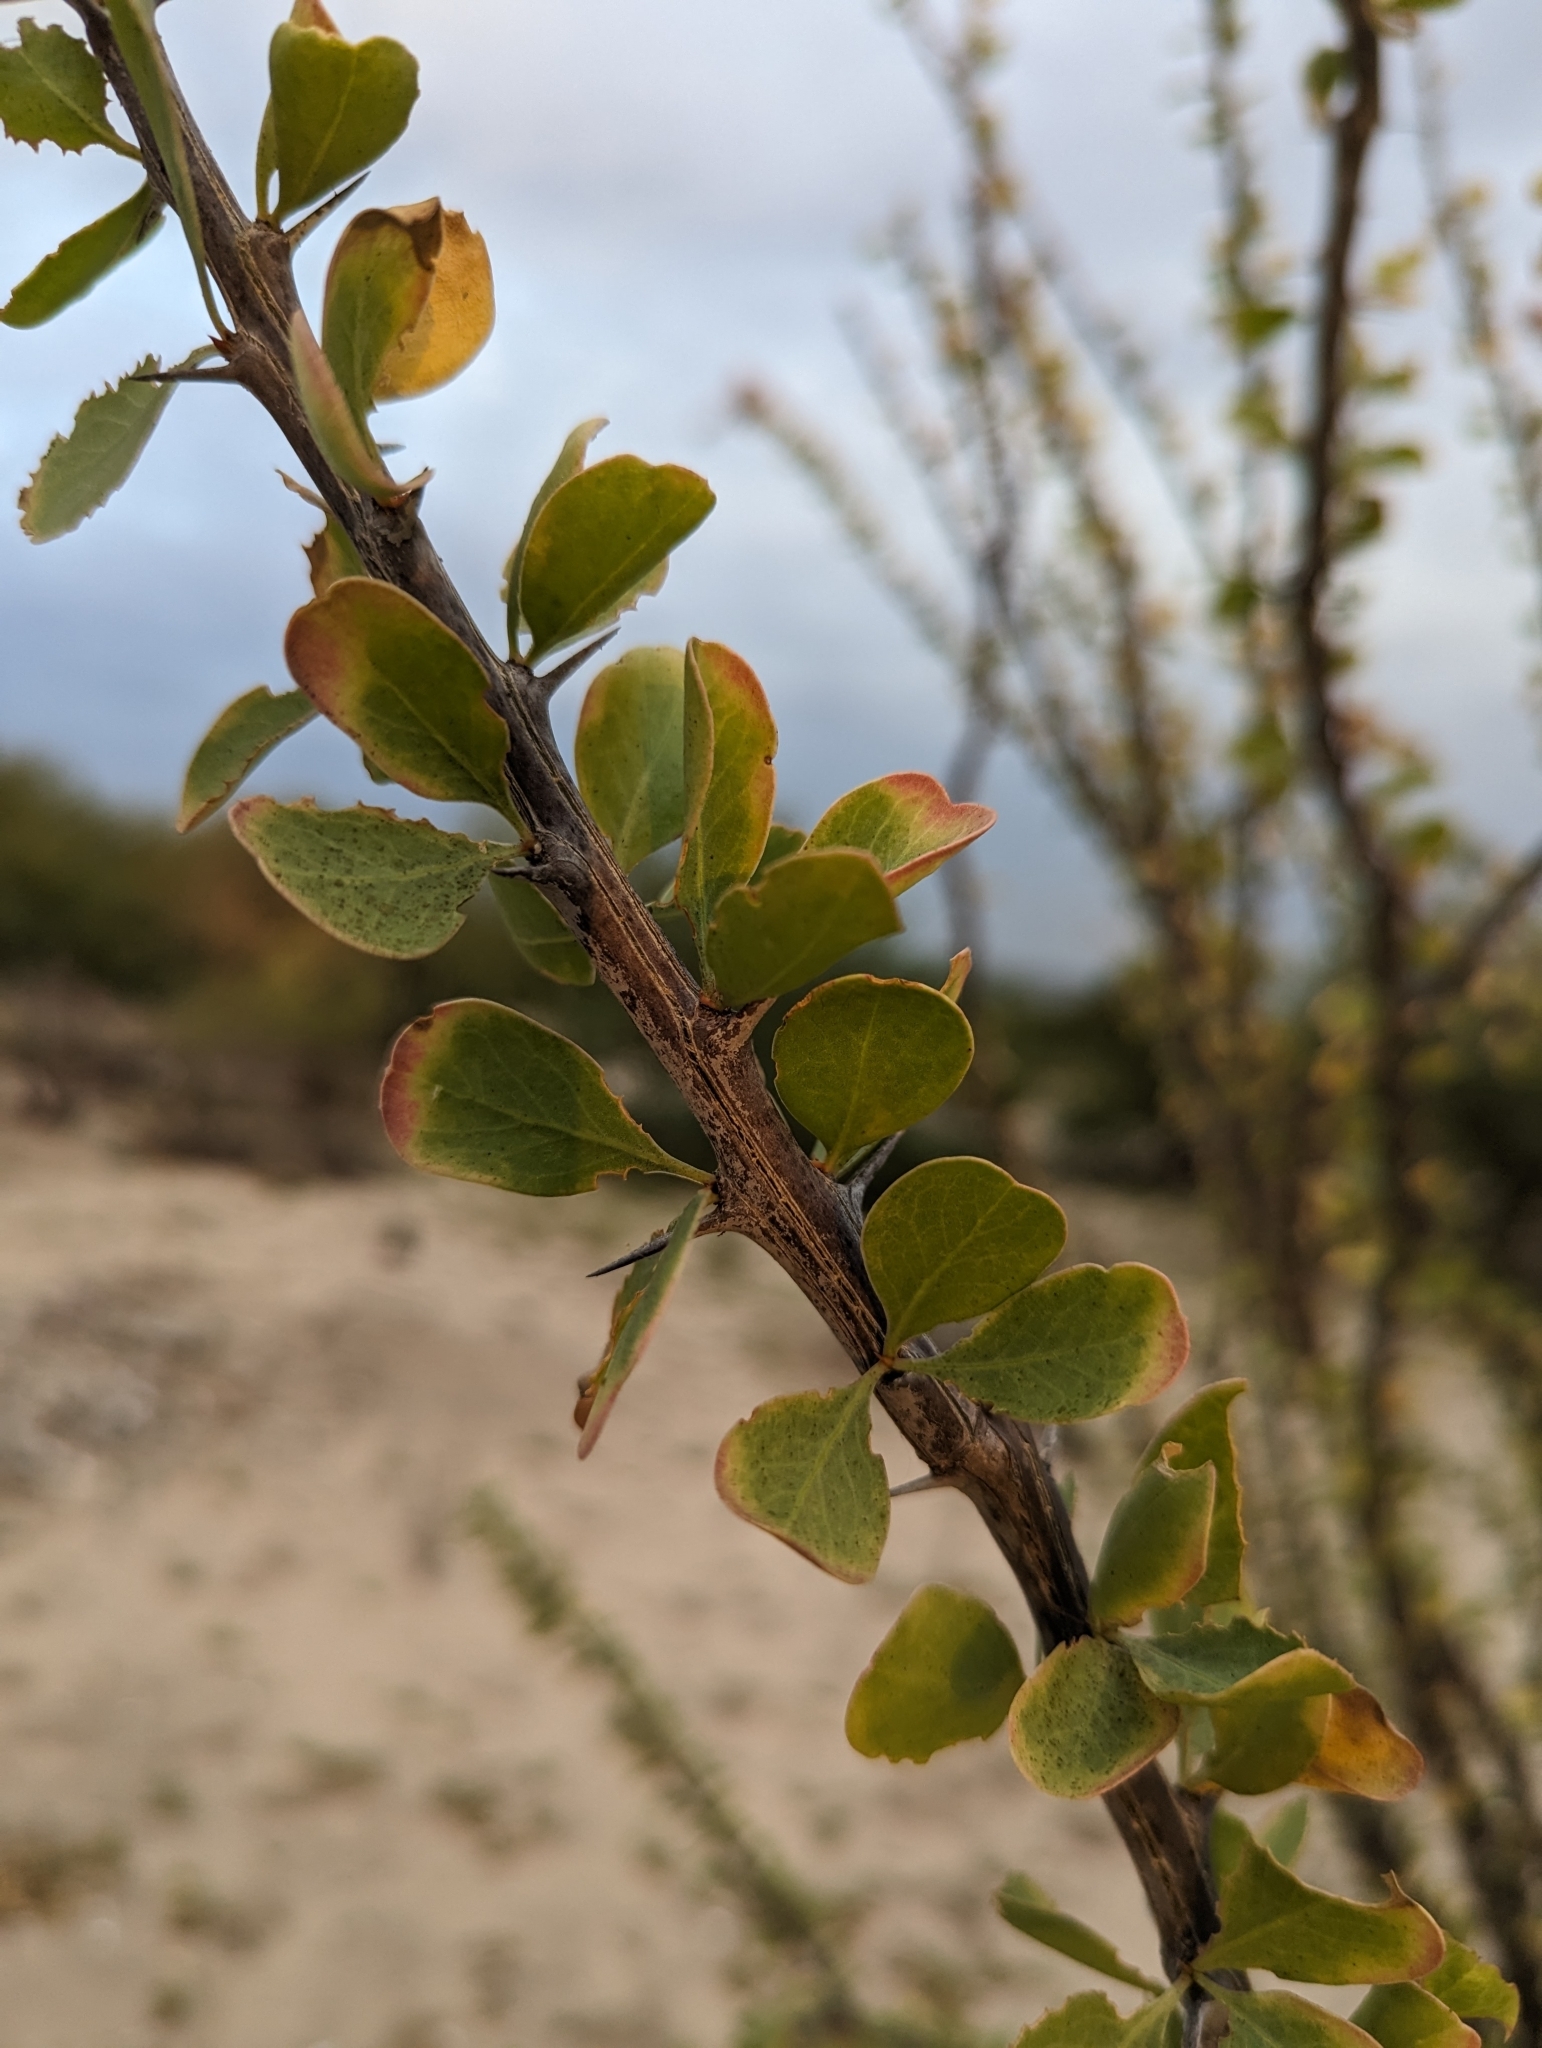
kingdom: Plantae
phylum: Tracheophyta
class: Magnoliopsida
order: Ericales
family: Fouquieriaceae
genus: Fouquieria
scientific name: Fouquieria diguetii
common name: Adam's tree
